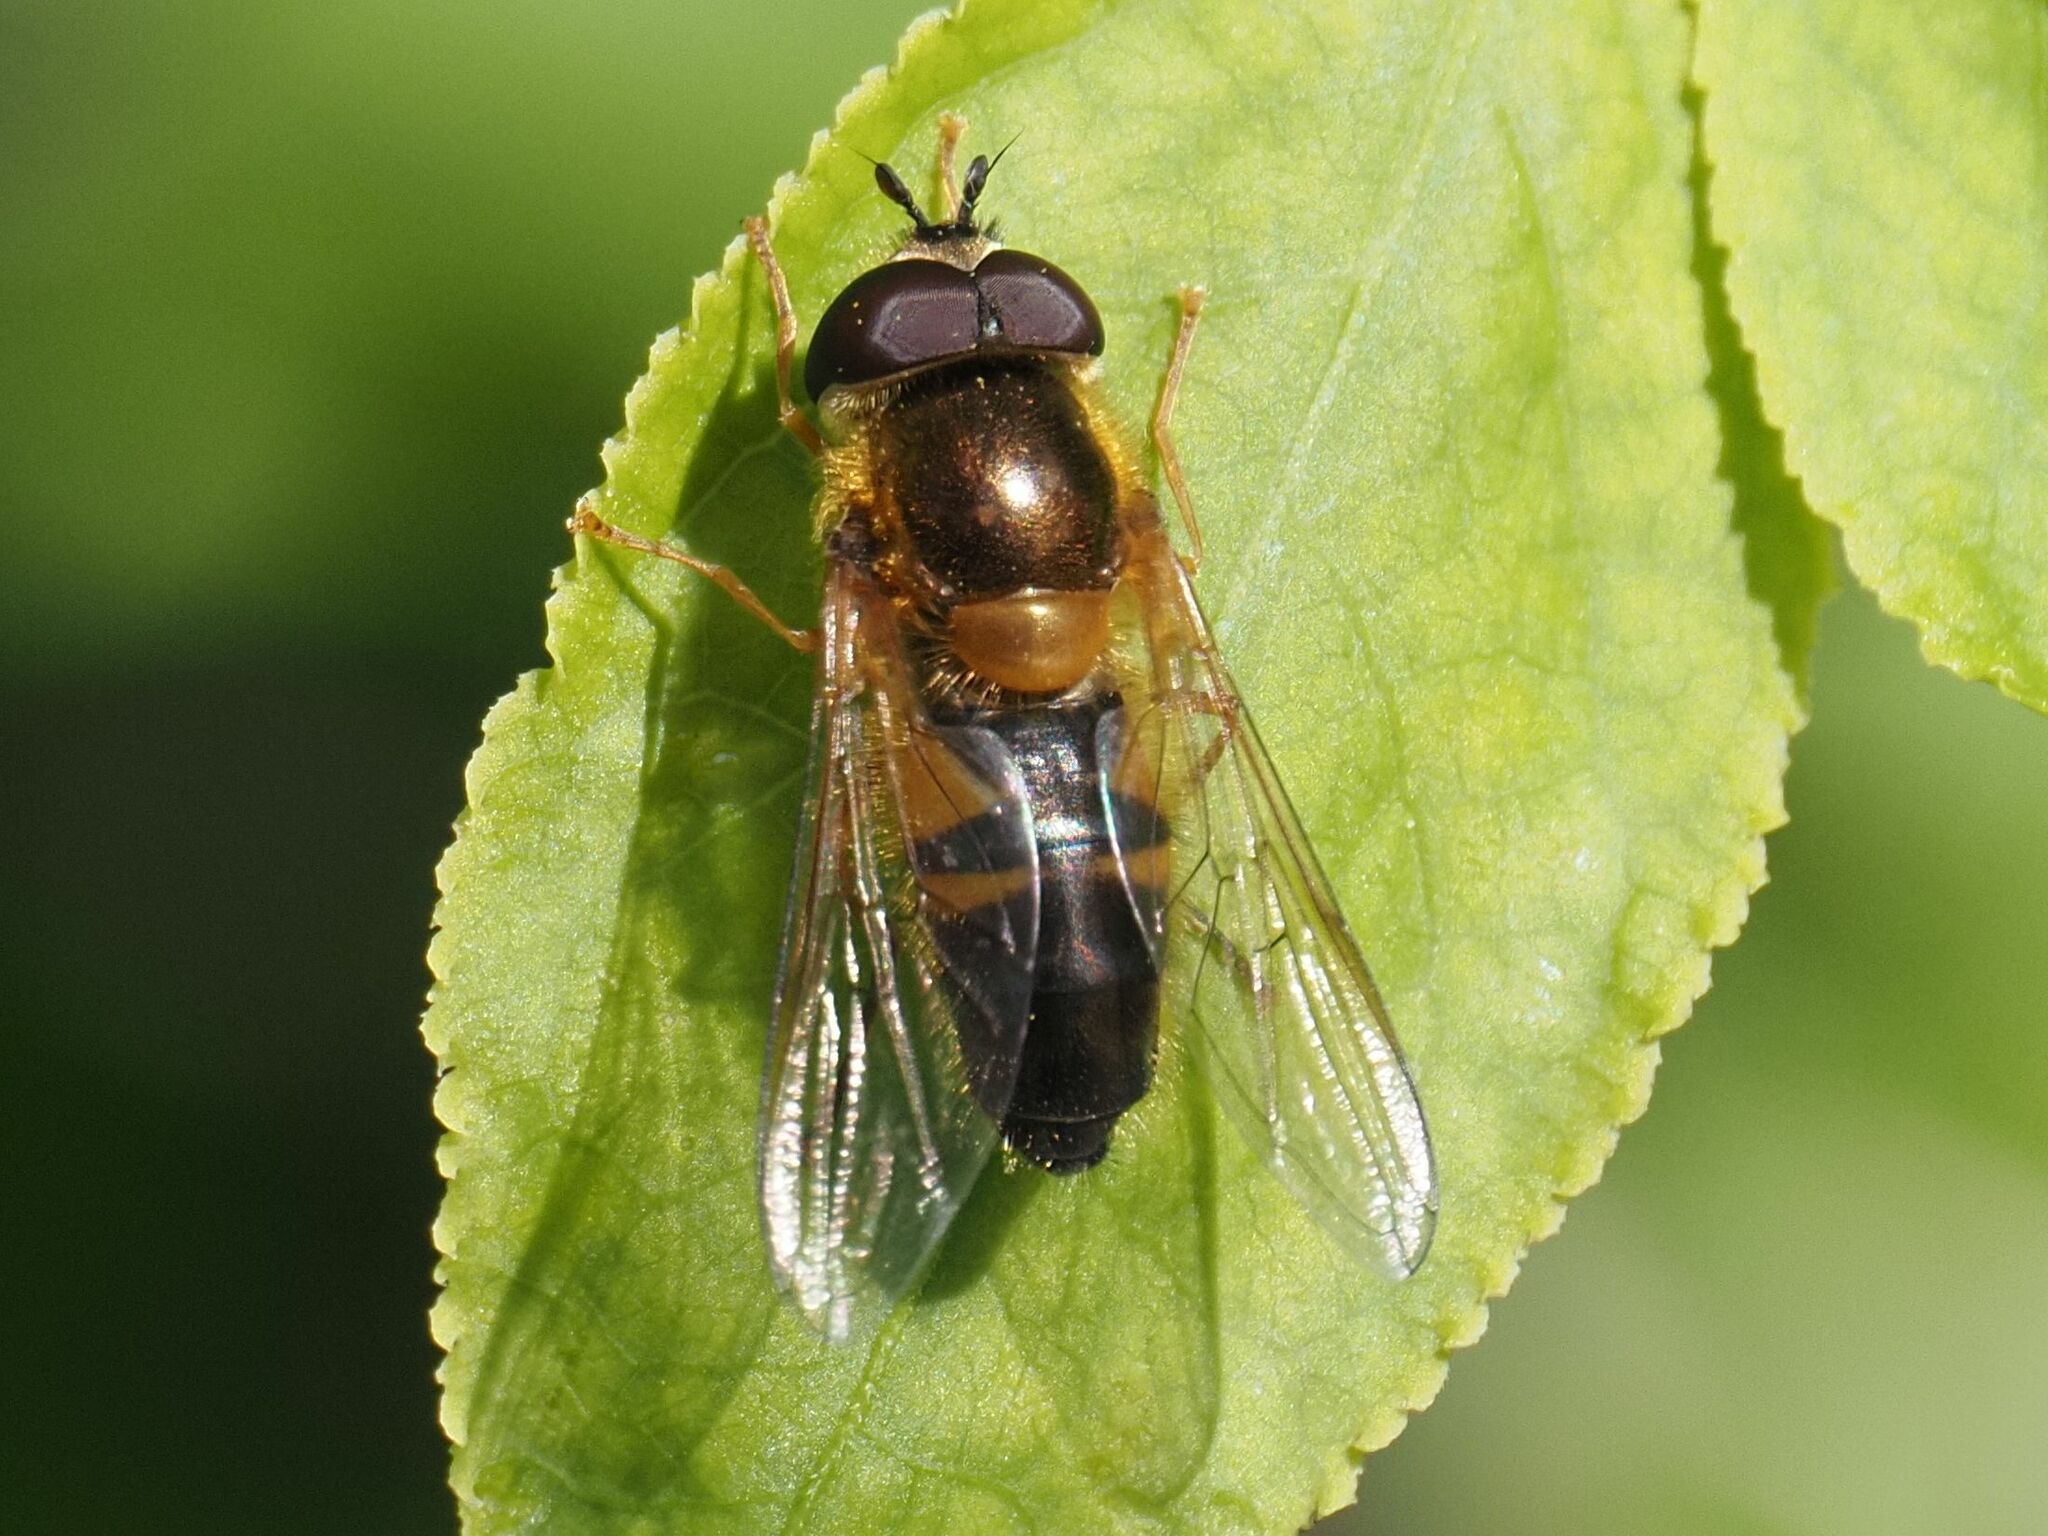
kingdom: Animalia
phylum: Arthropoda
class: Insecta
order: Diptera
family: Syrphidae
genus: Epistrophe
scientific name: Epistrophe eligans
